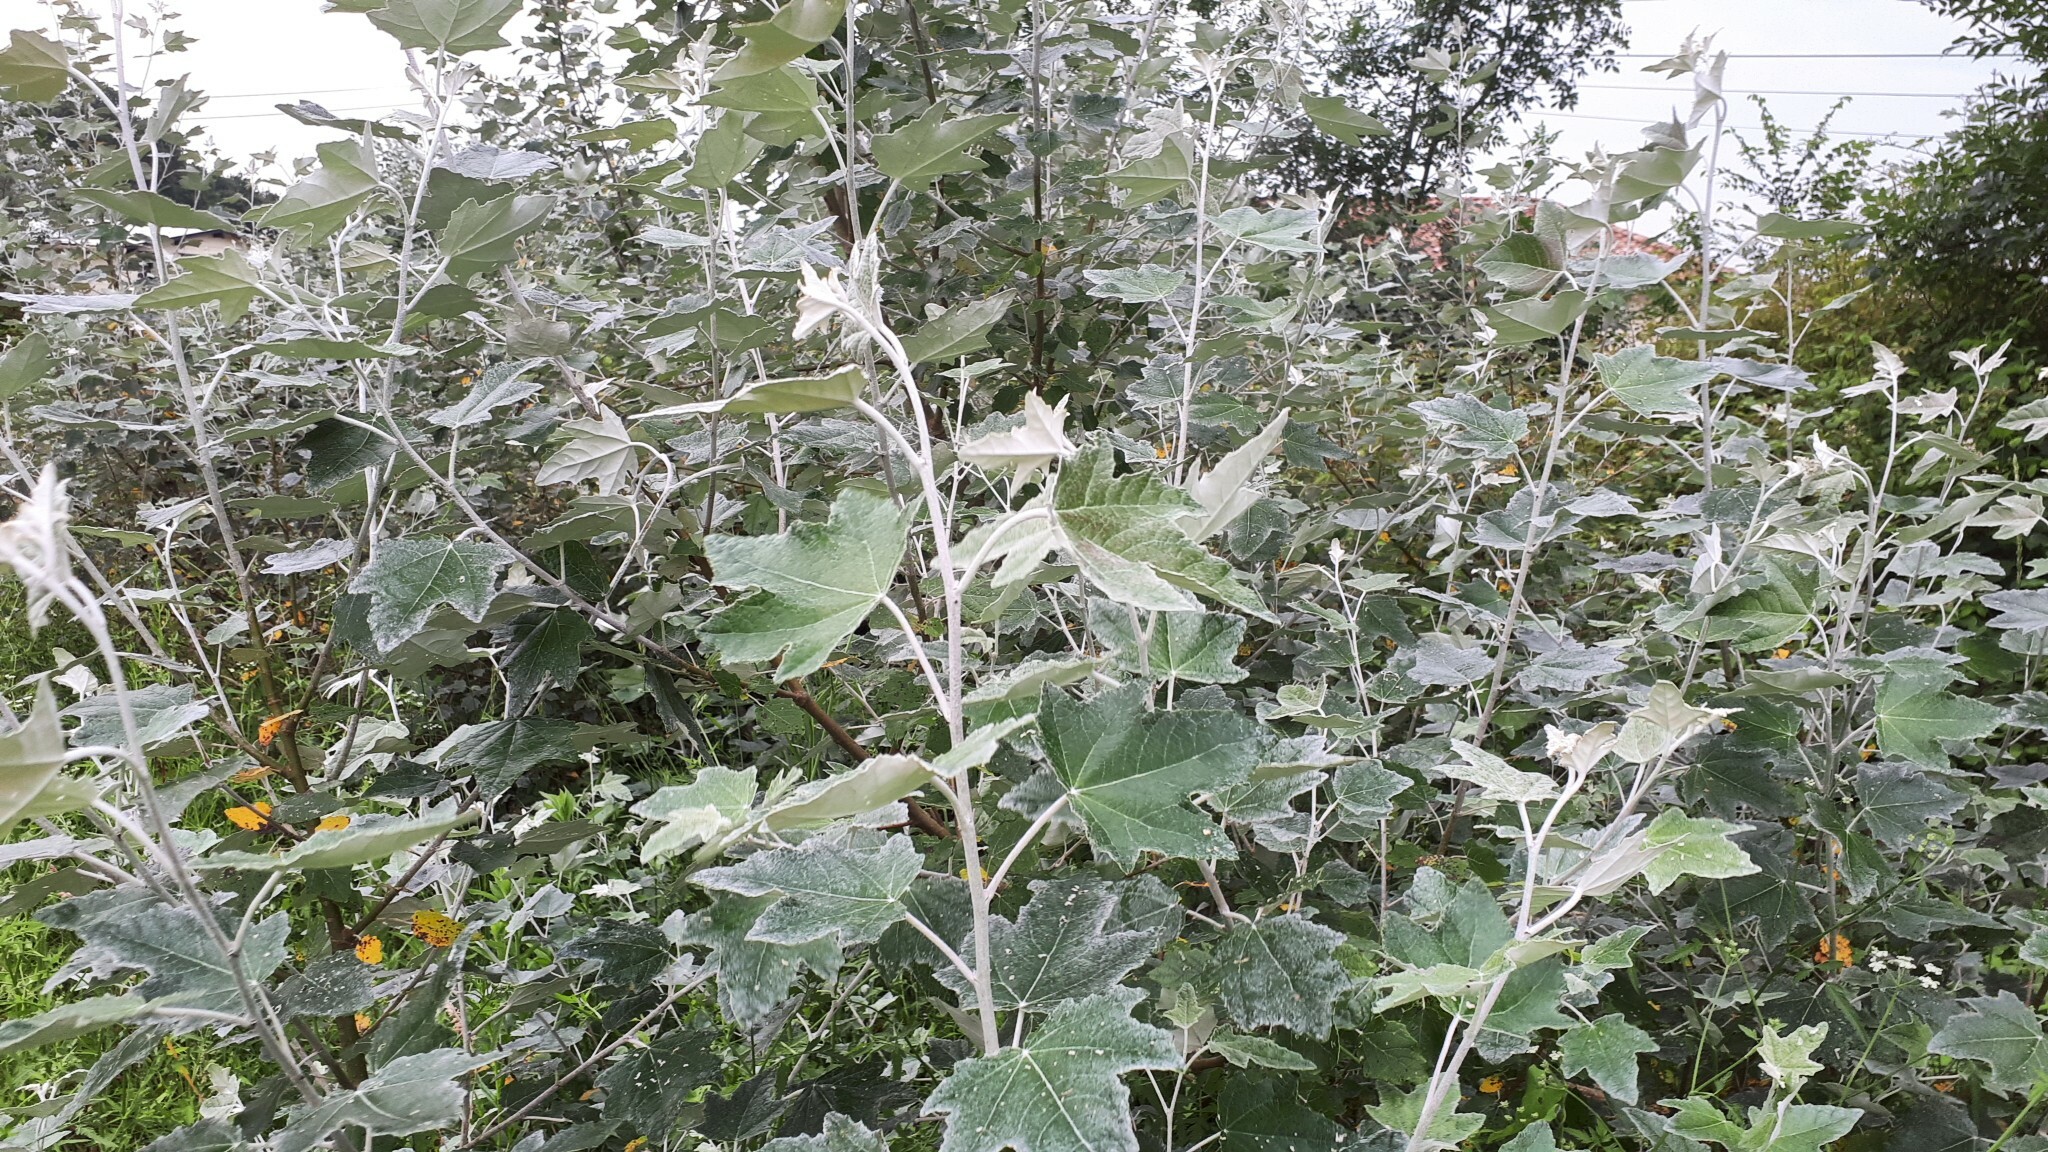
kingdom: Plantae
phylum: Tracheophyta
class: Magnoliopsida
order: Malpighiales
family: Salicaceae
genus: Populus
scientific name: Populus alba
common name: White poplar
